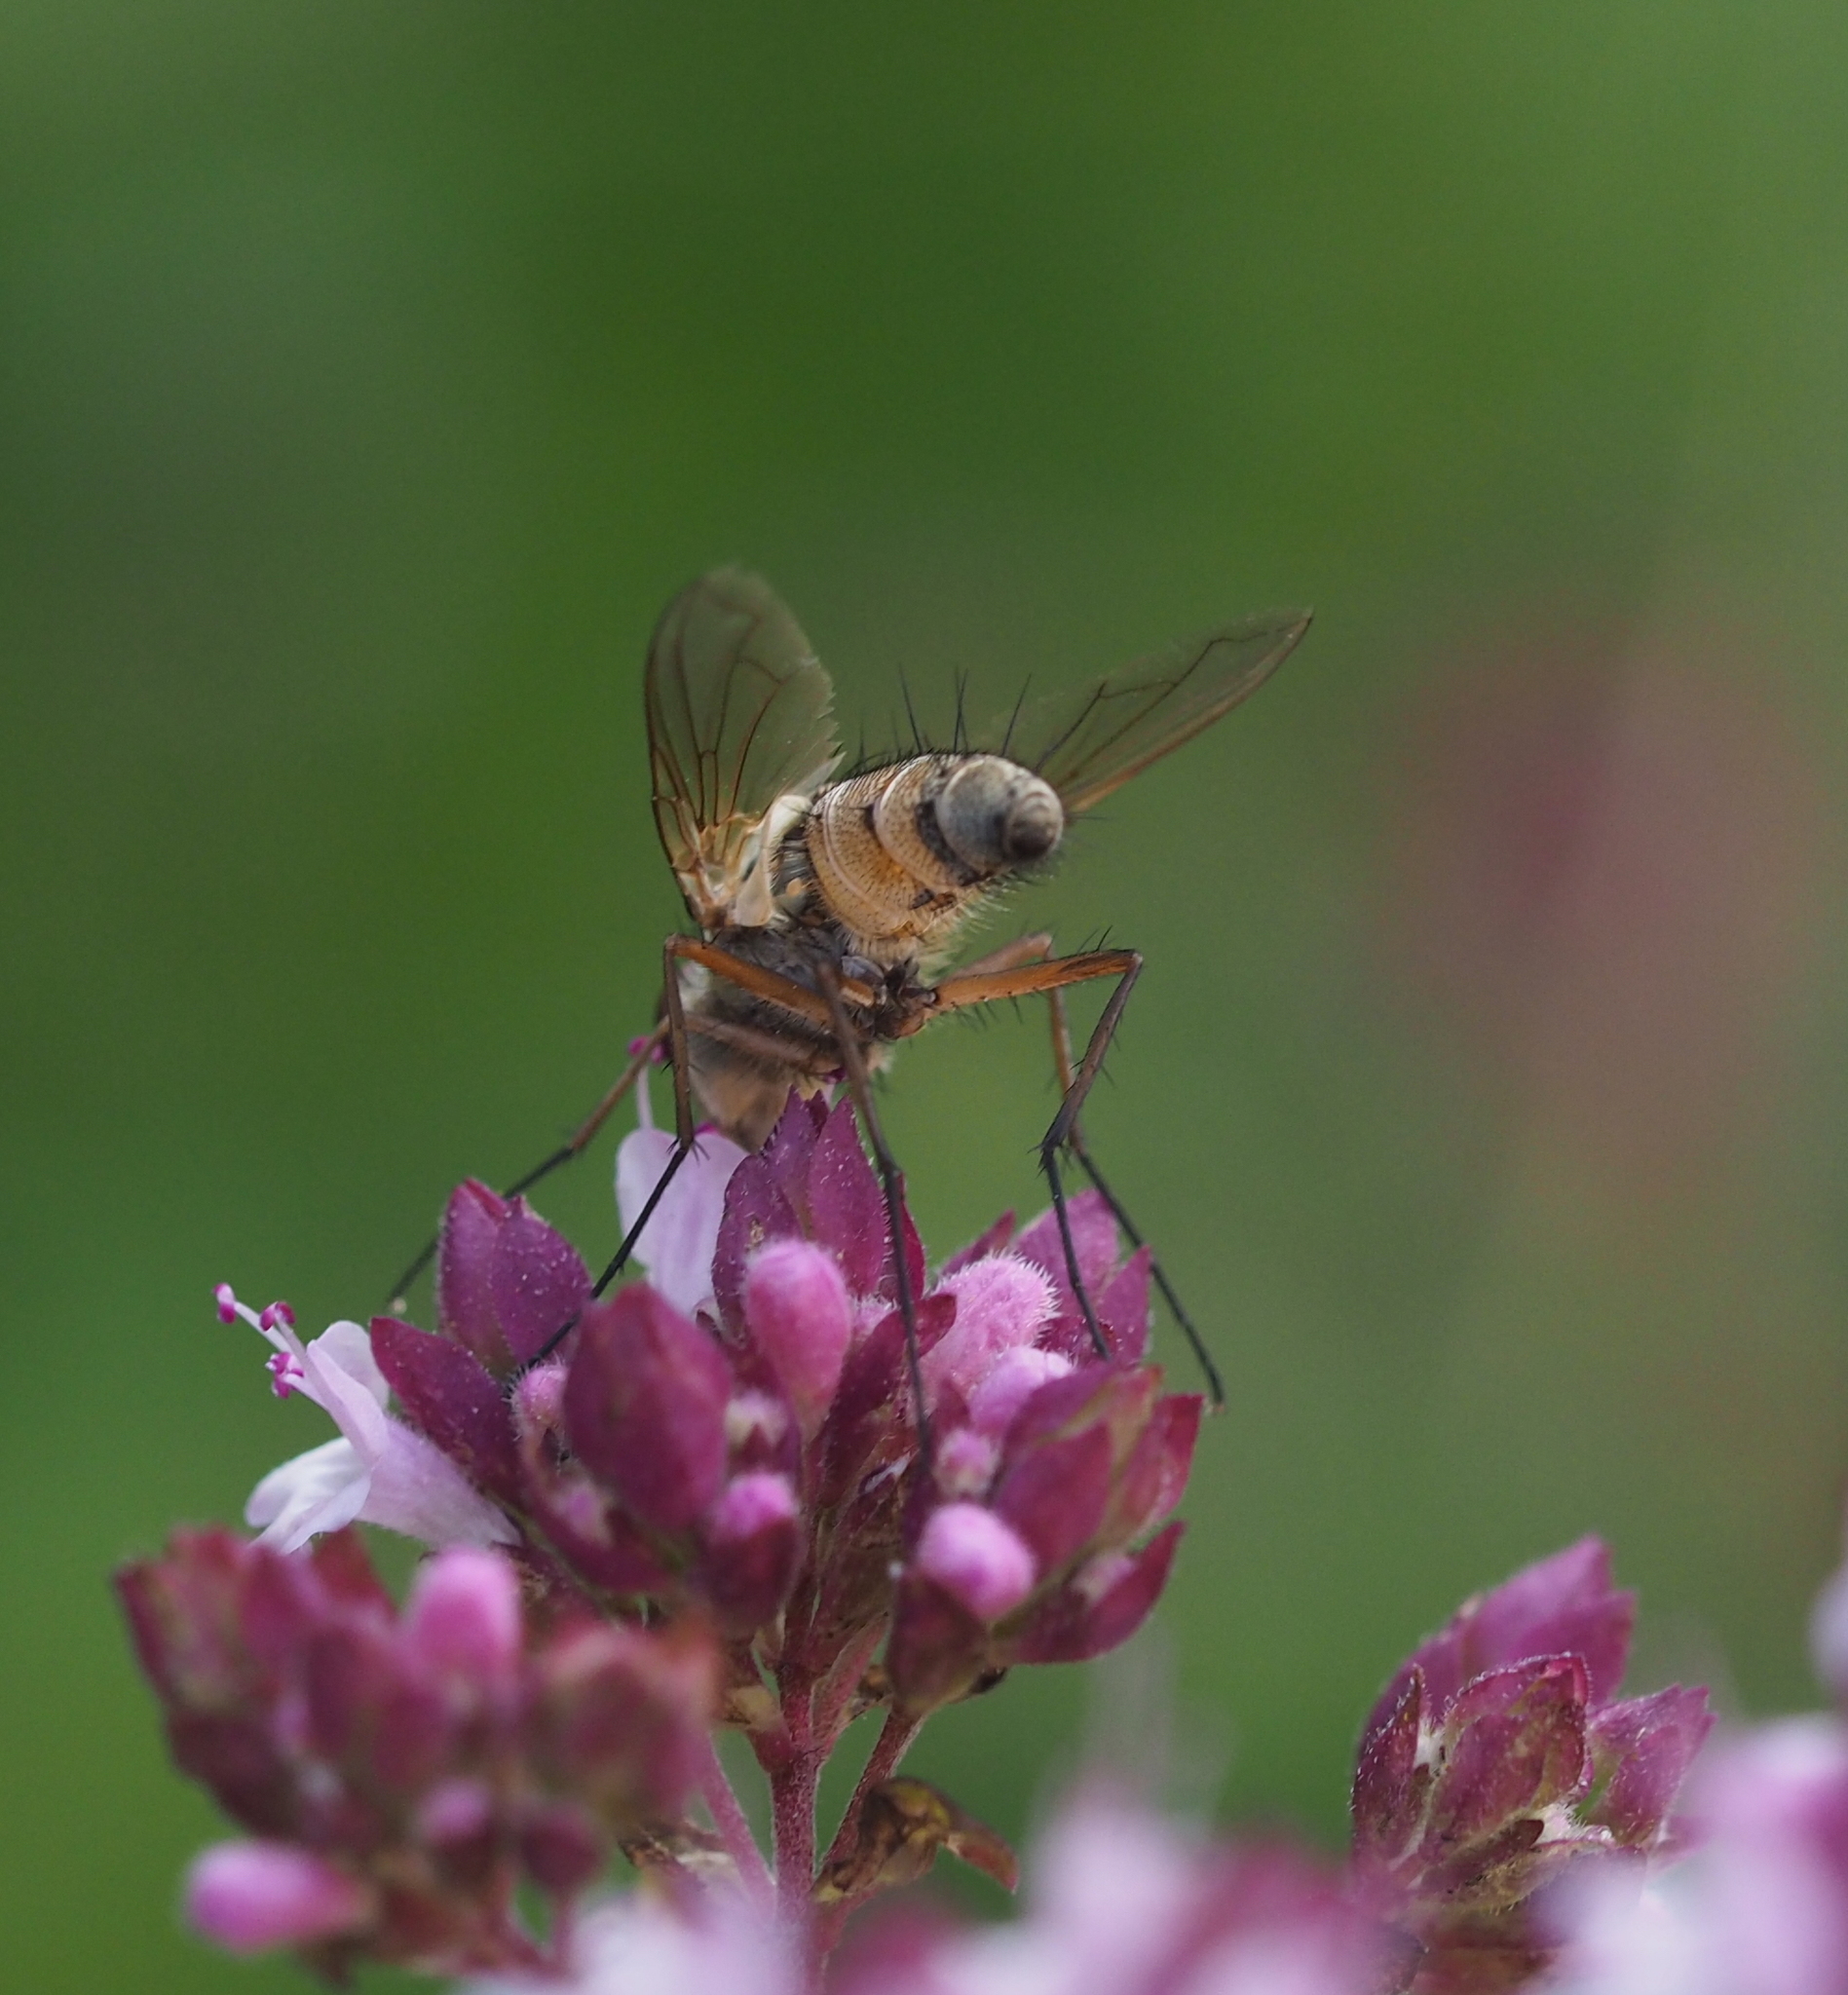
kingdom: Animalia
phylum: Arthropoda
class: Insecta
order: Diptera
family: Tachinidae
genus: Prosena
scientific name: Prosena siberita
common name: Parasitic fly
